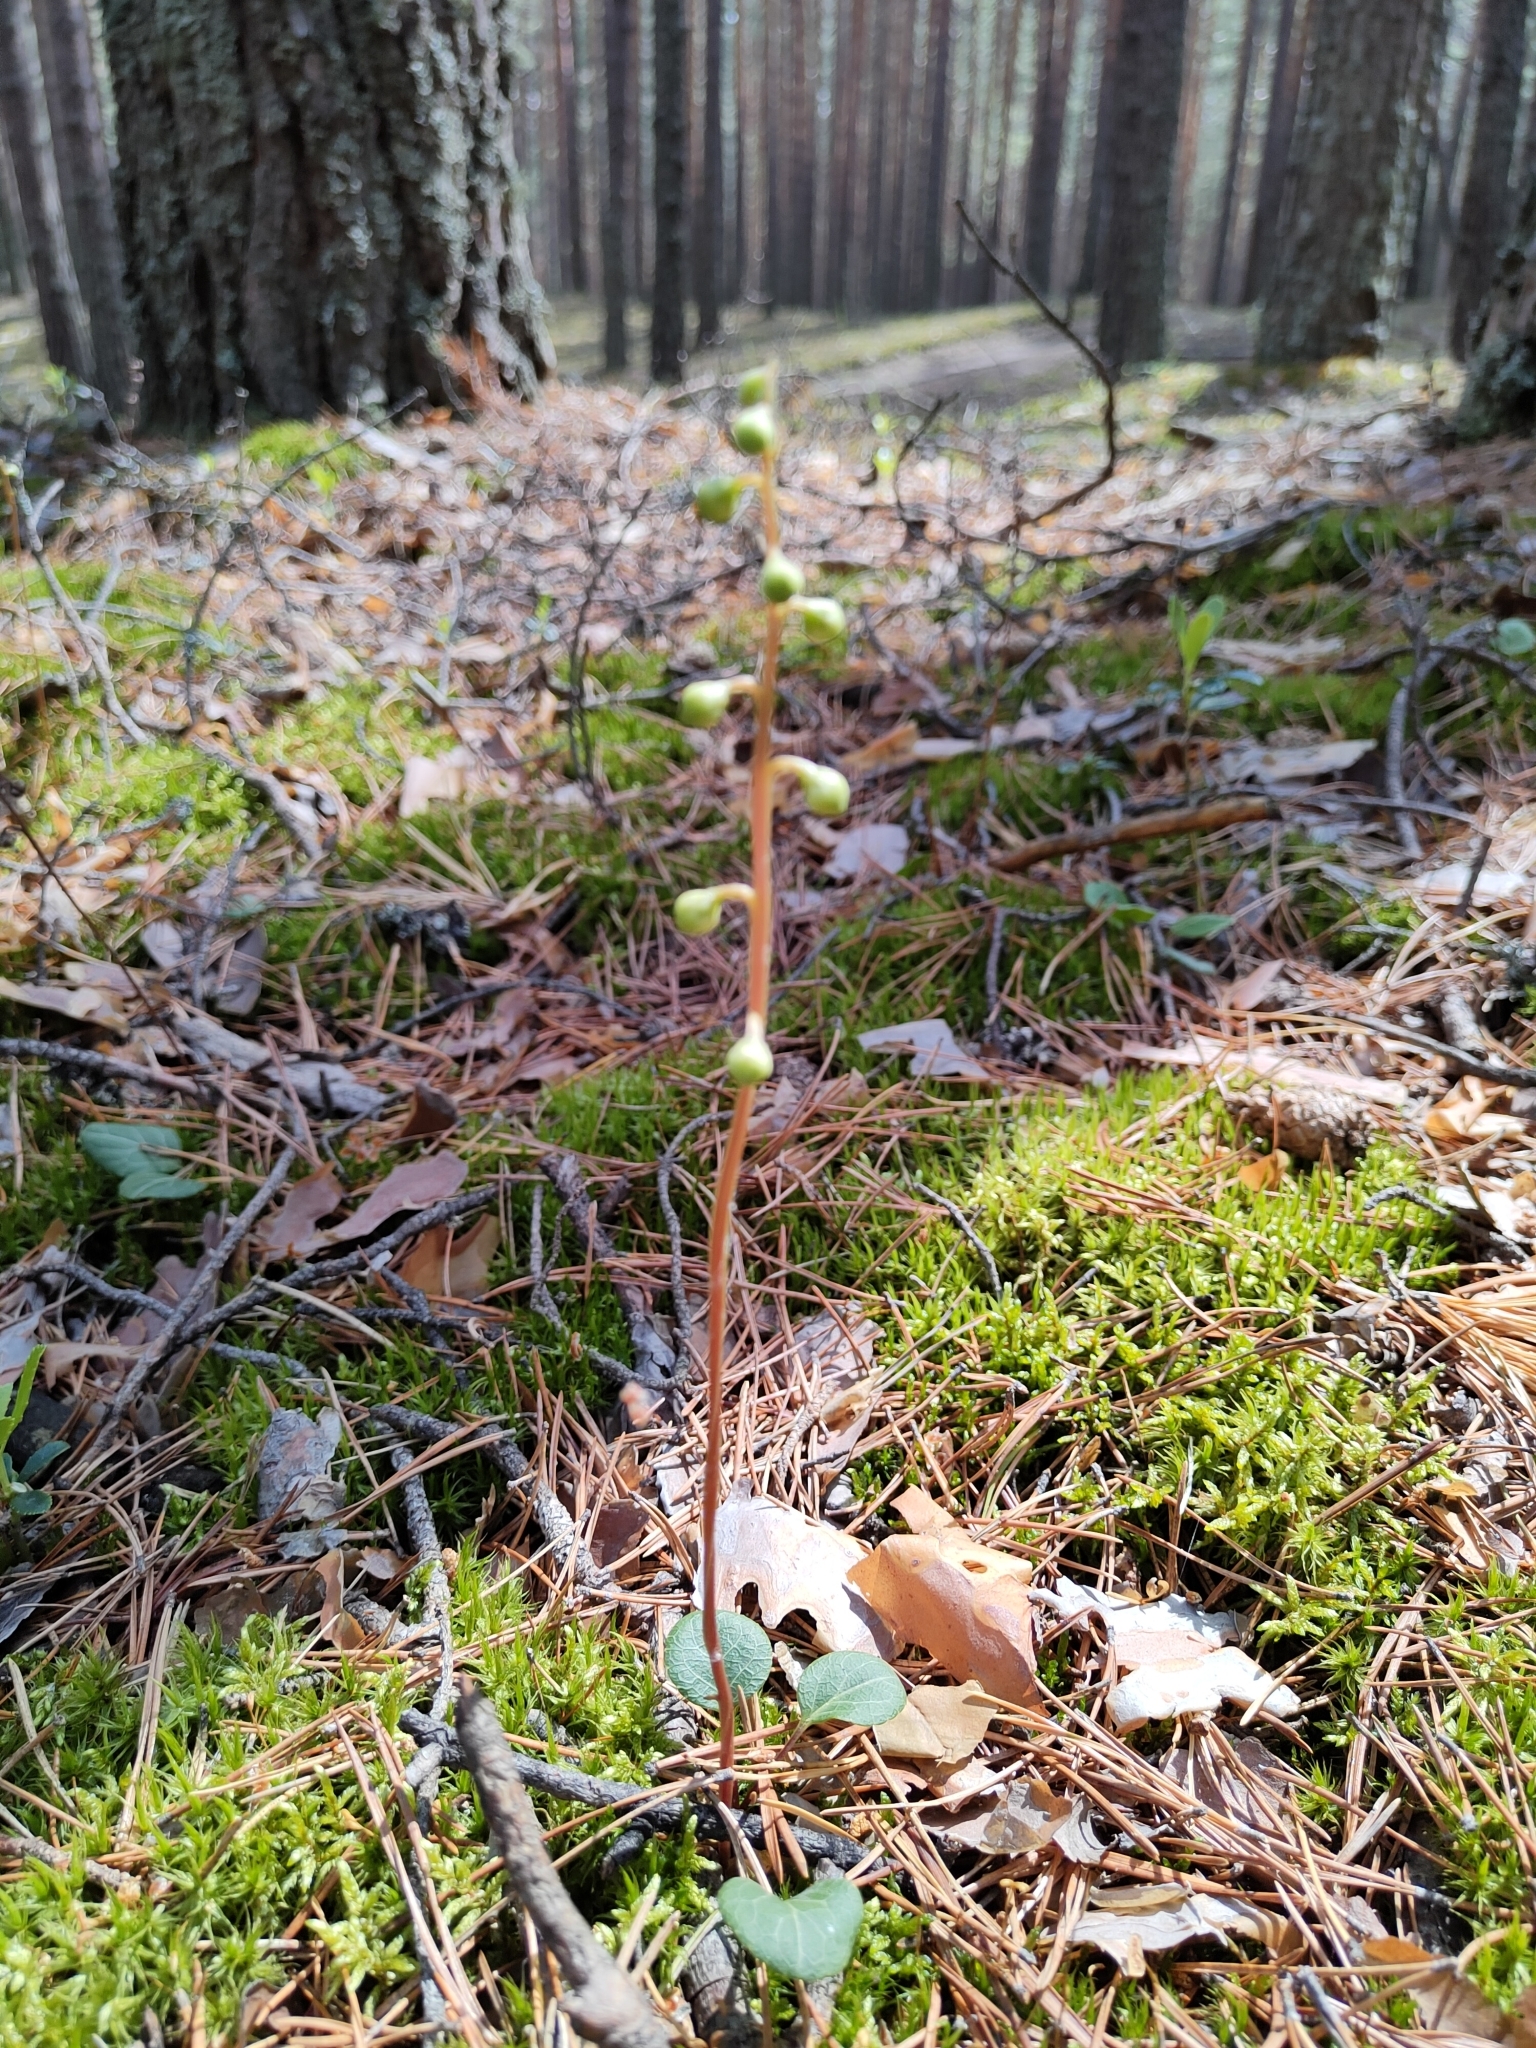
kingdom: Plantae
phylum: Tracheophyta
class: Magnoliopsida
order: Ericales
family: Ericaceae
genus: Pyrola
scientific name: Pyrola chlorantha
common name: Green wintergreen
